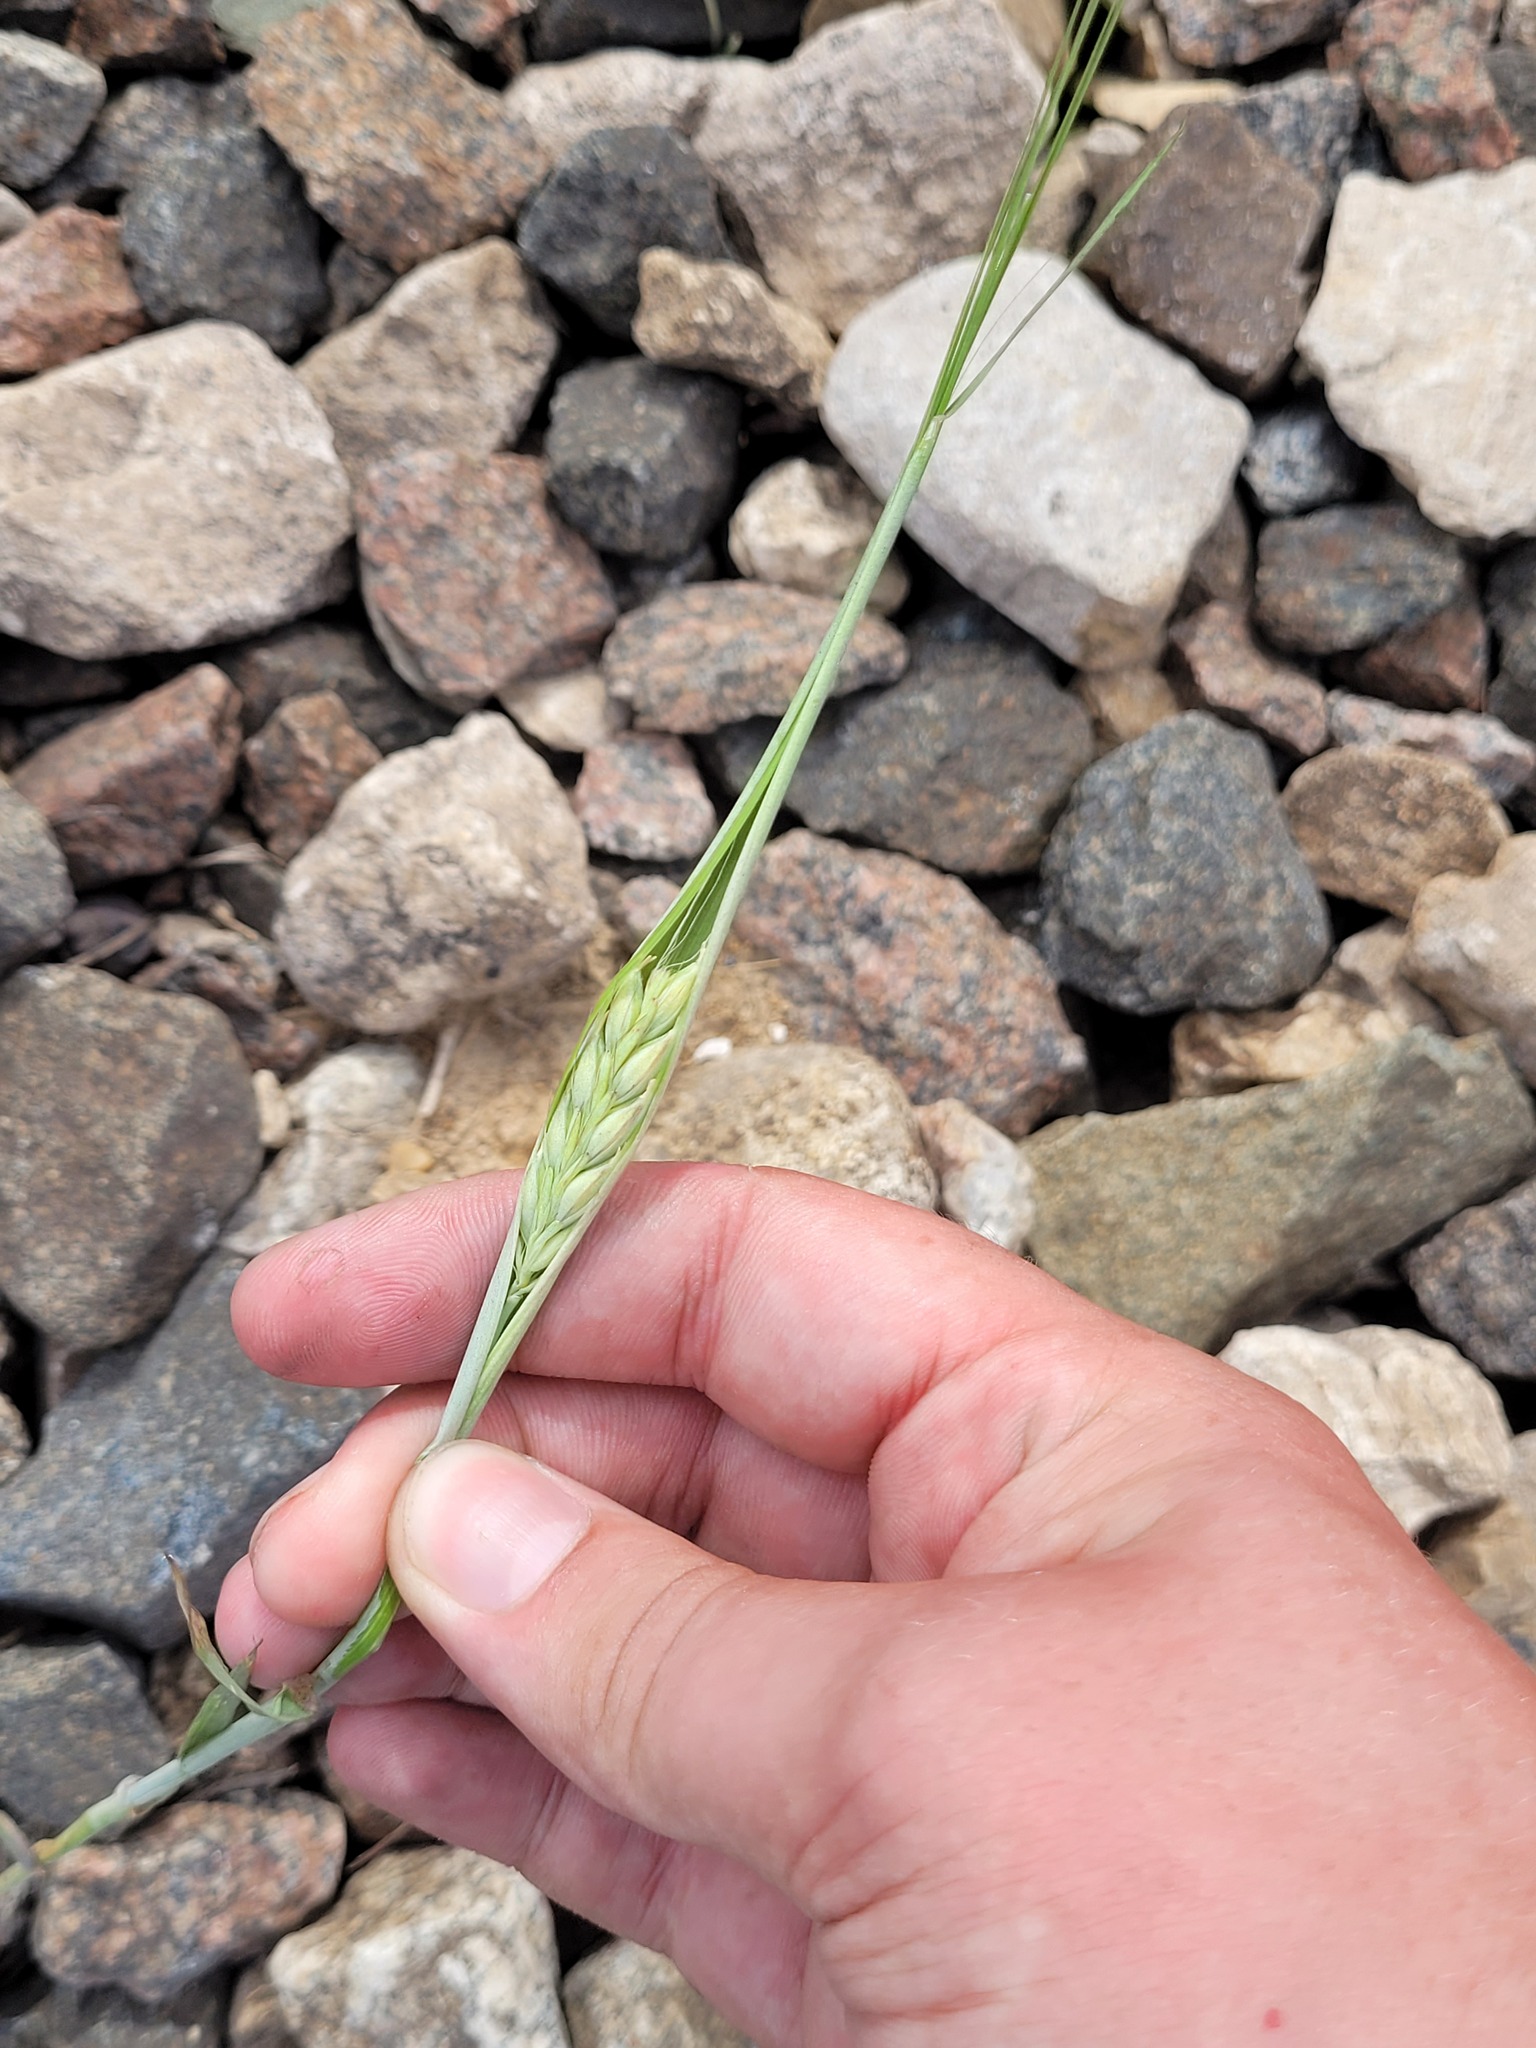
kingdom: Plantae
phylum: Tracheophyta
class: Liliopsida
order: Poales
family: Poaceae
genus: Hordeum
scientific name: Hordeum vulgare
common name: Common barley
